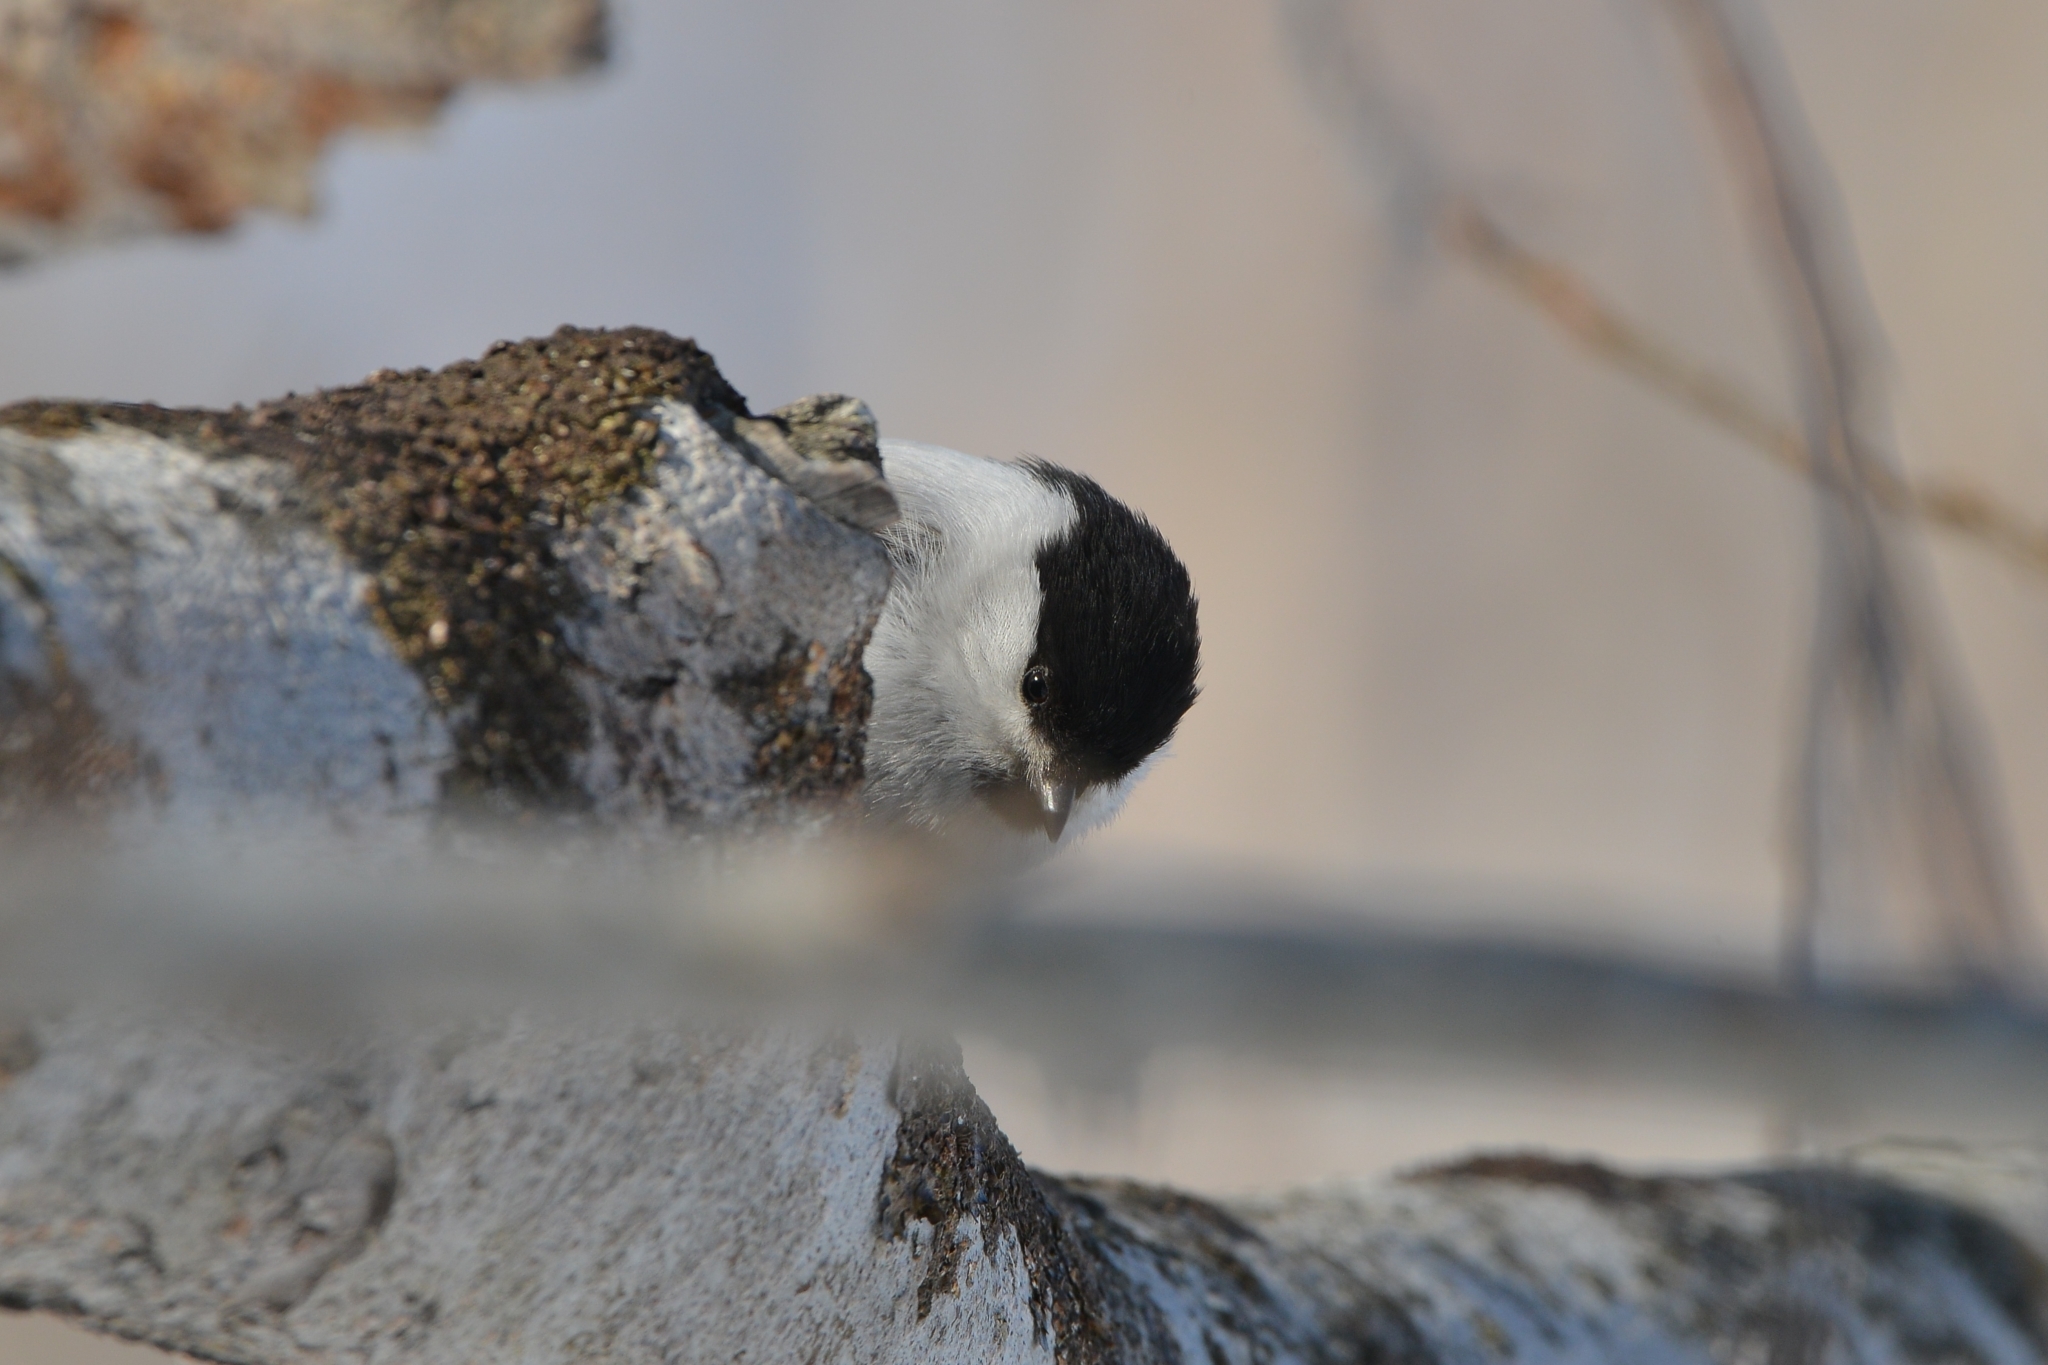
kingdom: Animalia
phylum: Chordata
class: Aves
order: Passeriformes
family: Paridae
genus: Poecile
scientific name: Poecile montanus
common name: Willow tit
